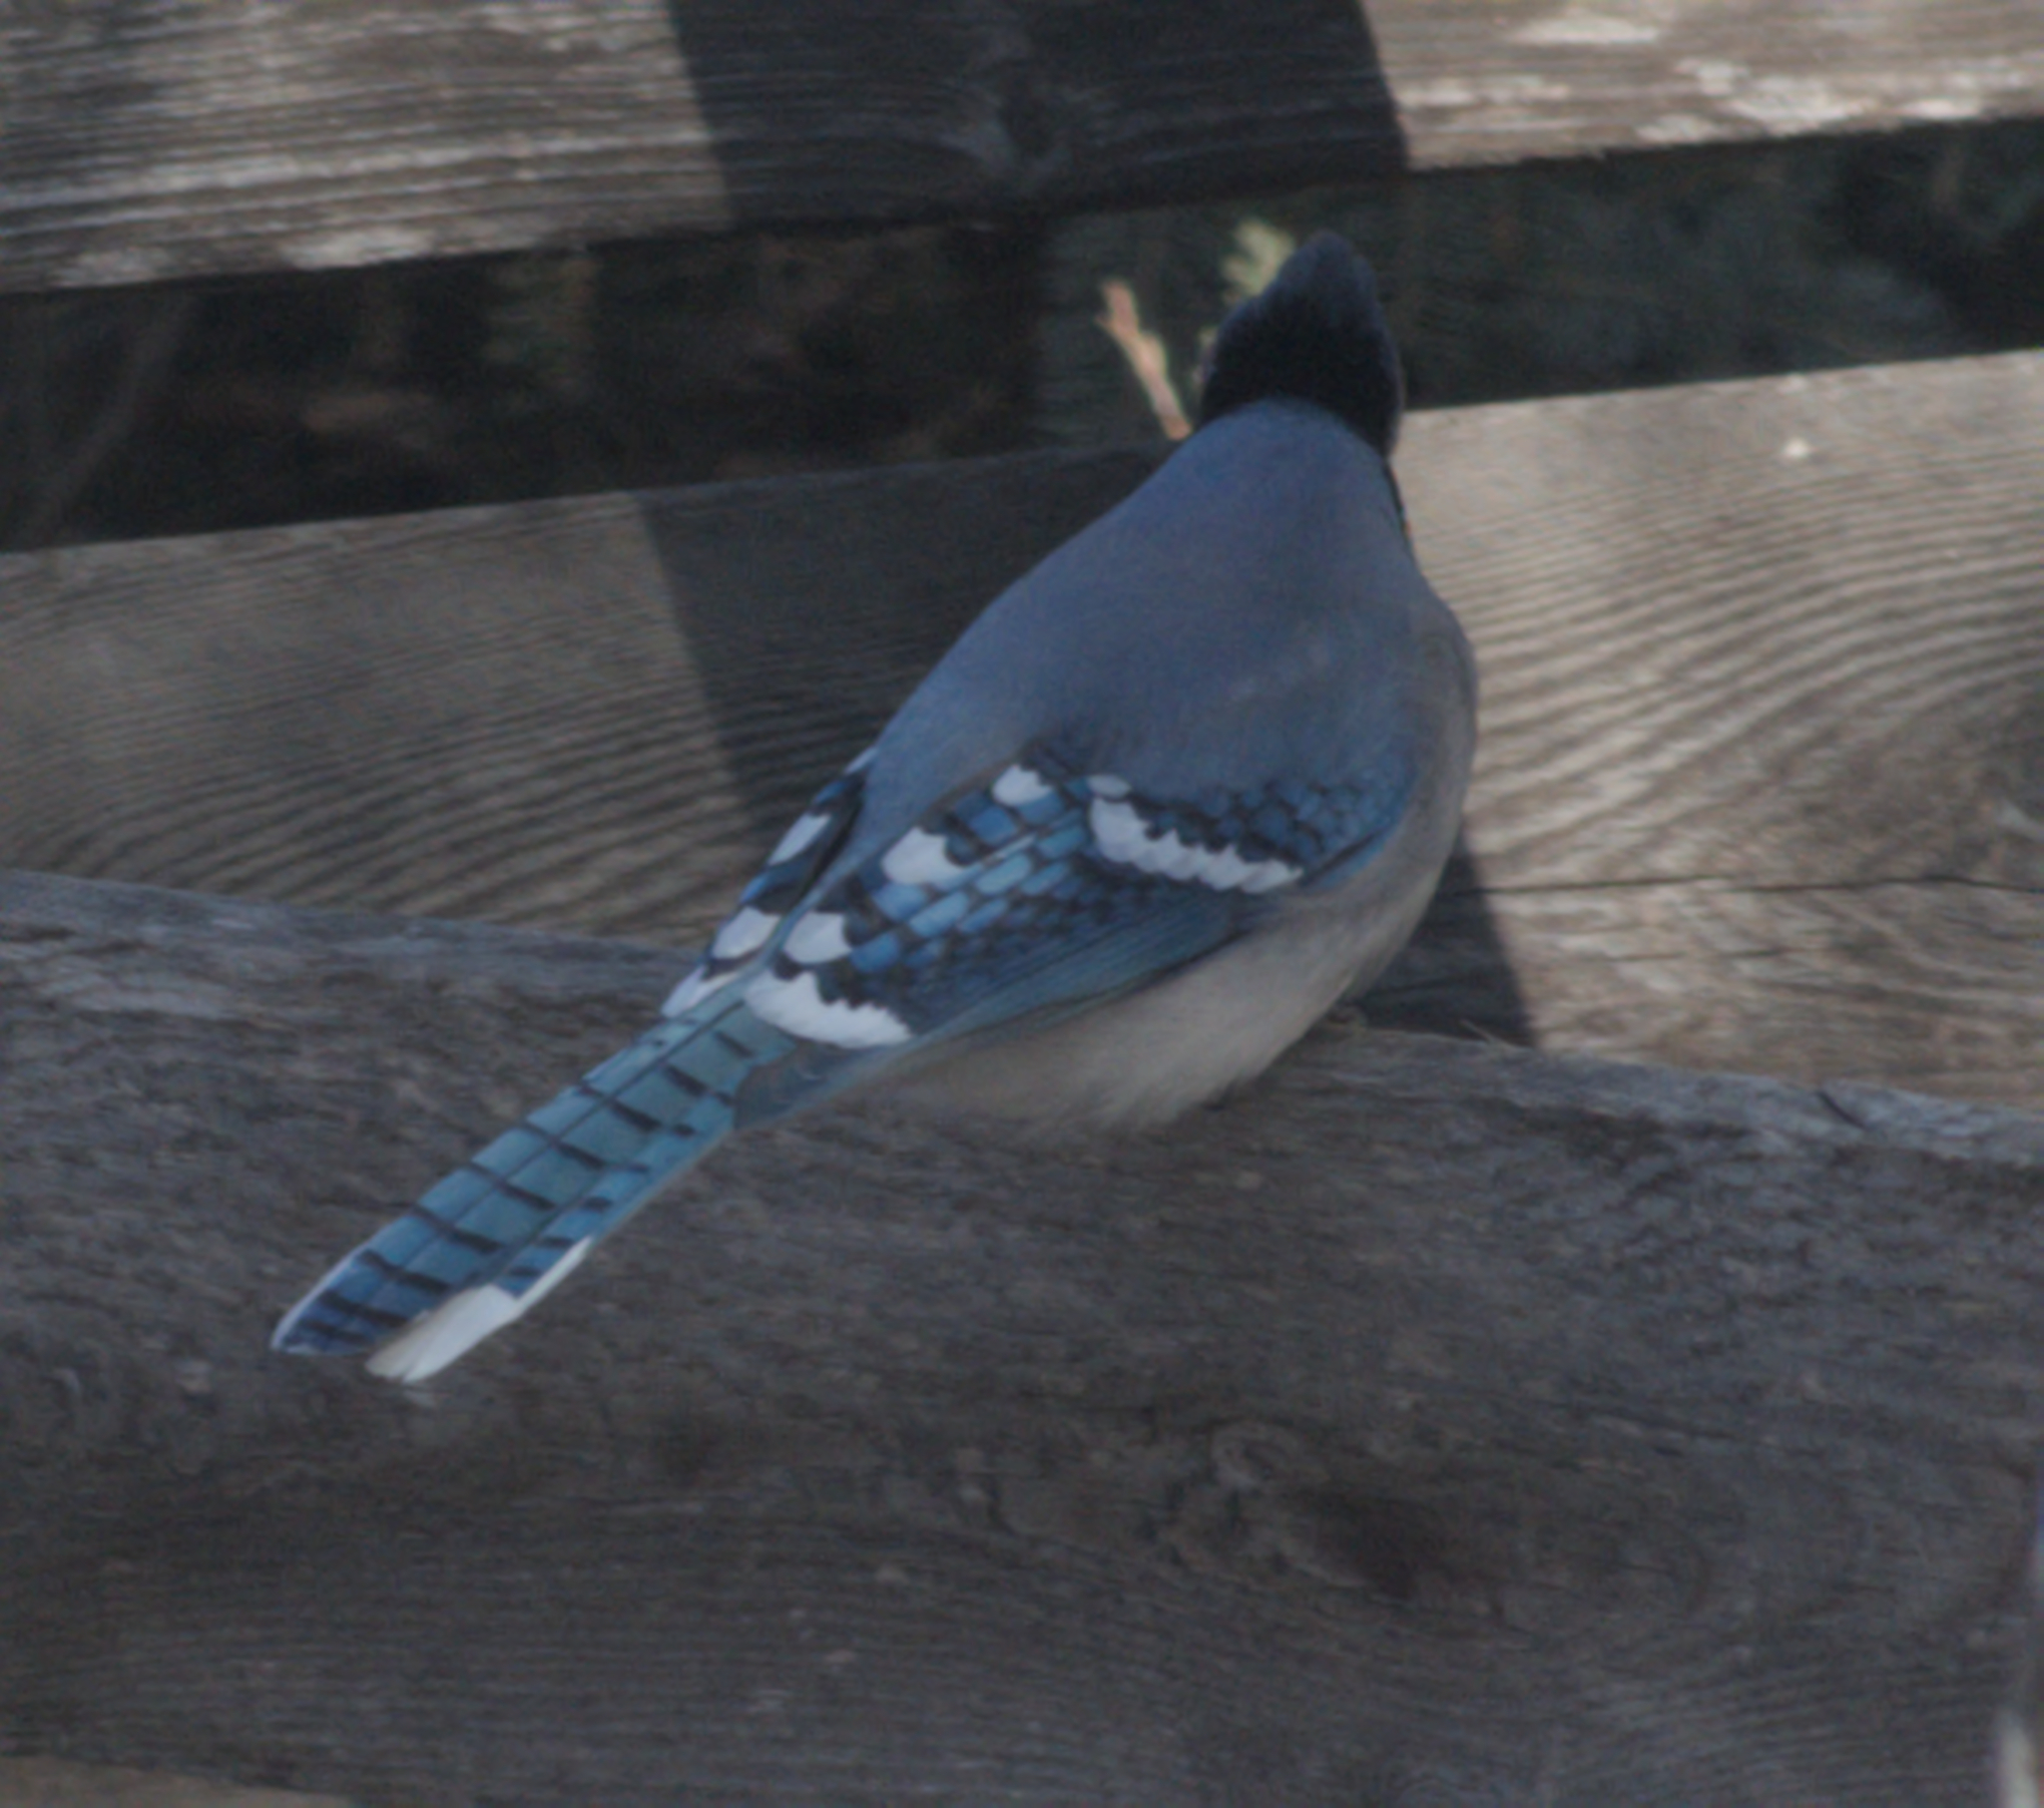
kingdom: Animalia
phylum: Chordata
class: Aves
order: Passeriformes
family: Corvidae
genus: Cyanocitta
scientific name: Cyanocitta cristata
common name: Blue jay
